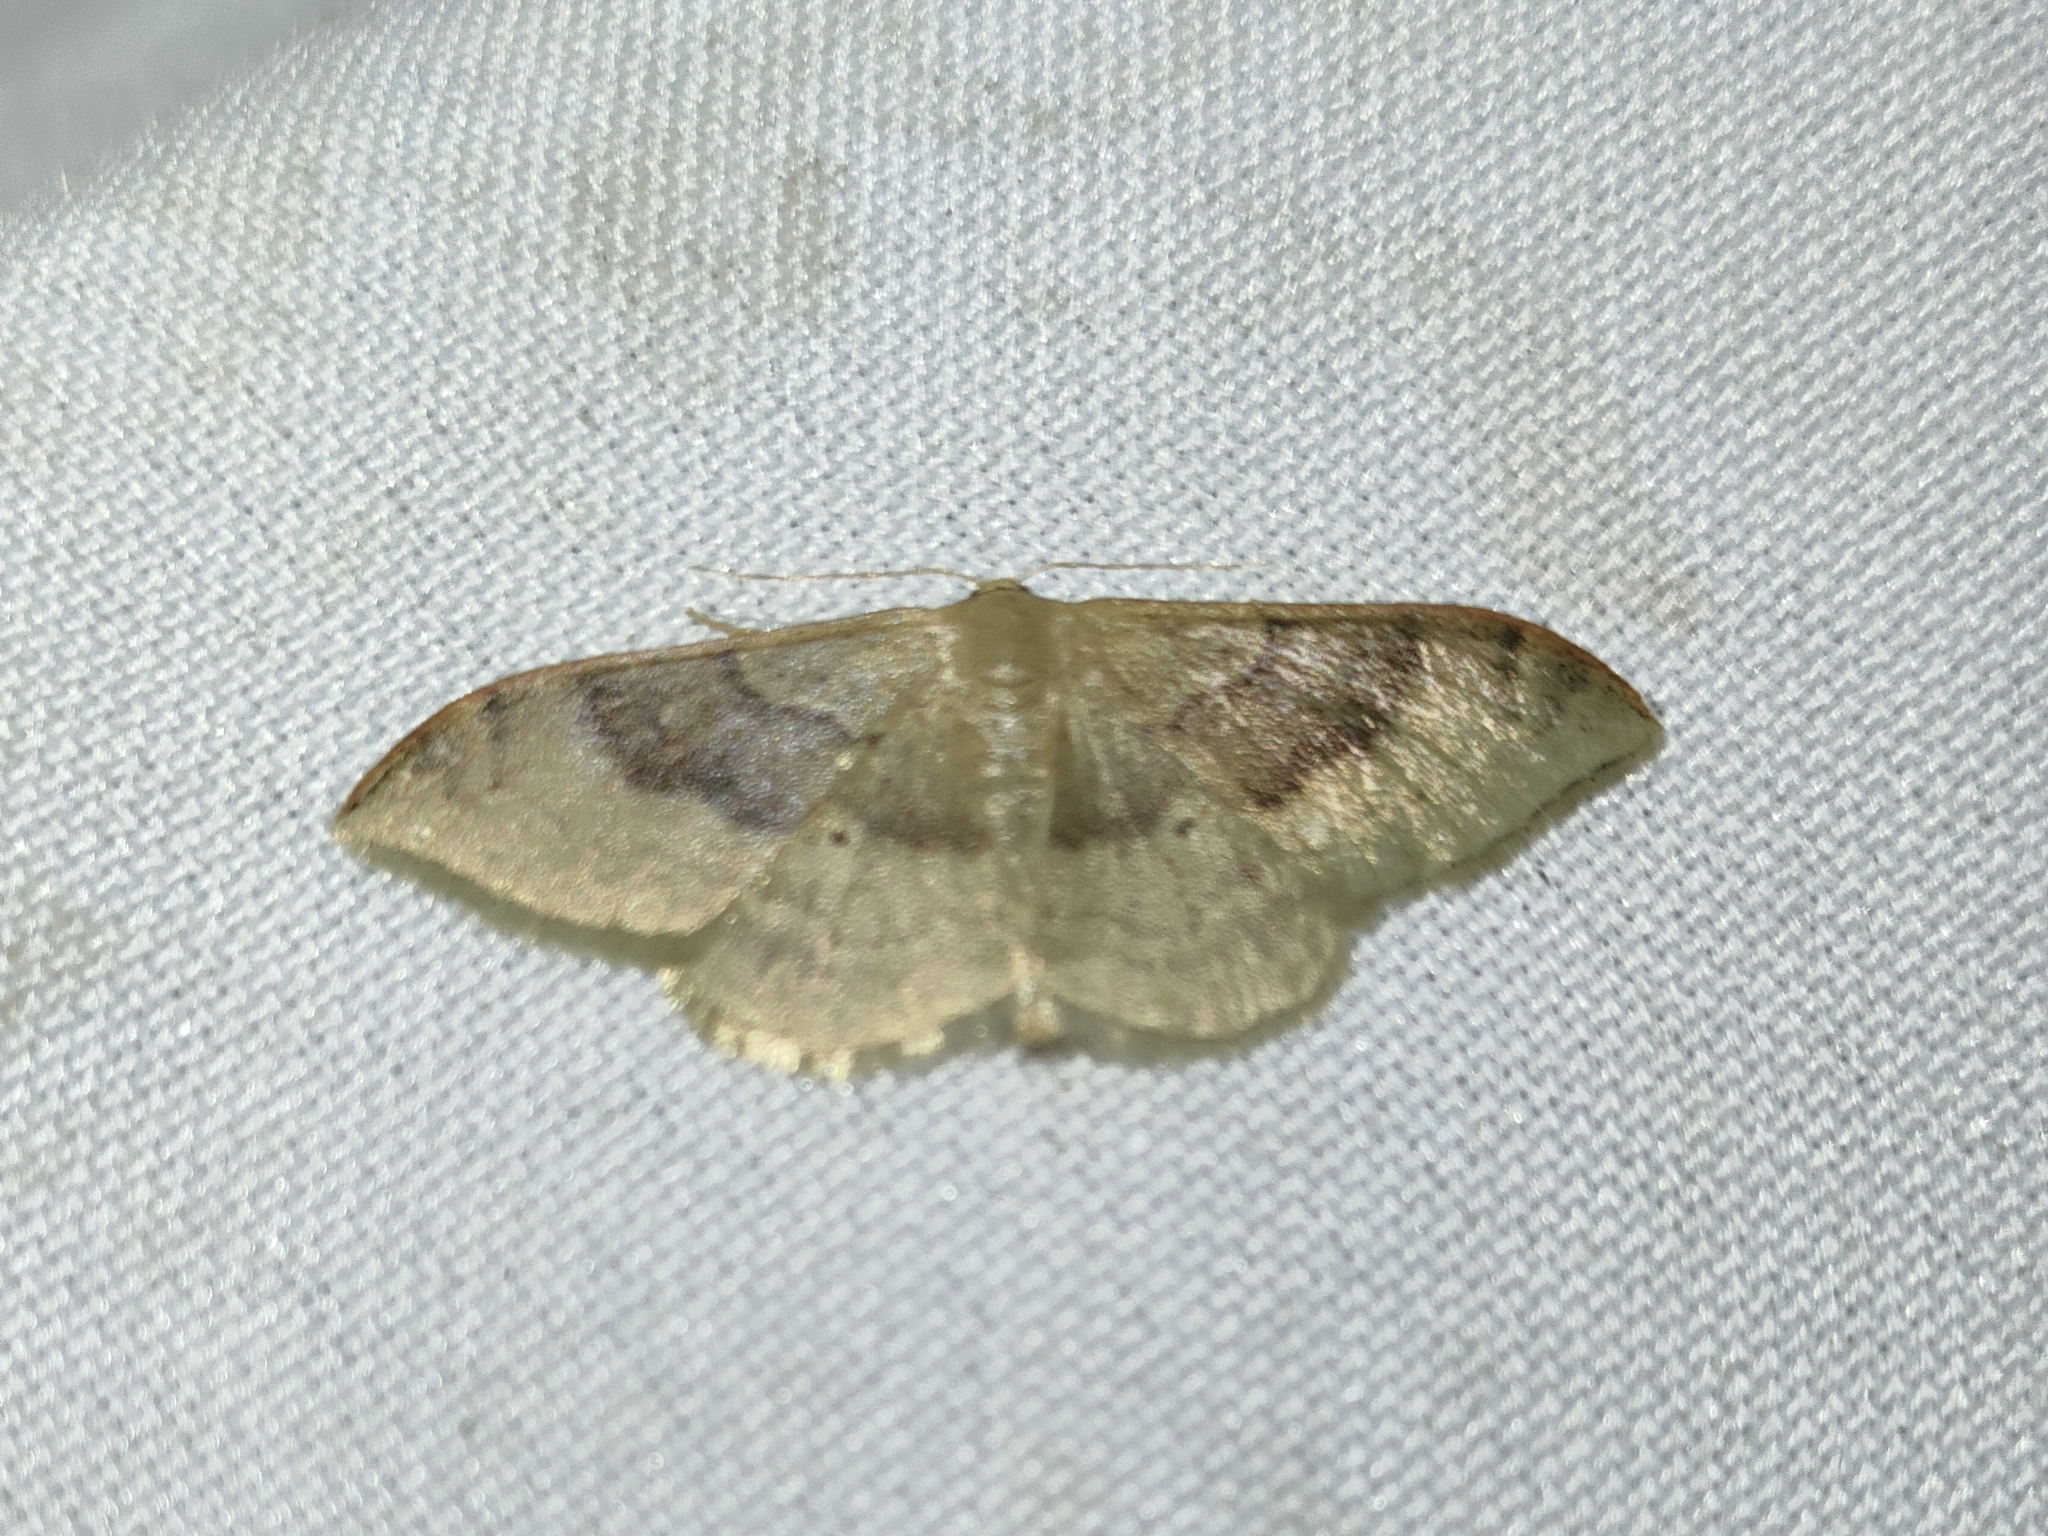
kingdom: Animalia
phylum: Arthropoda
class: Insecta
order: Lepidoptera
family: Geometridae
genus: Idaea
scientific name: Idaea degeneraria
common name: Portland ribbon wave
